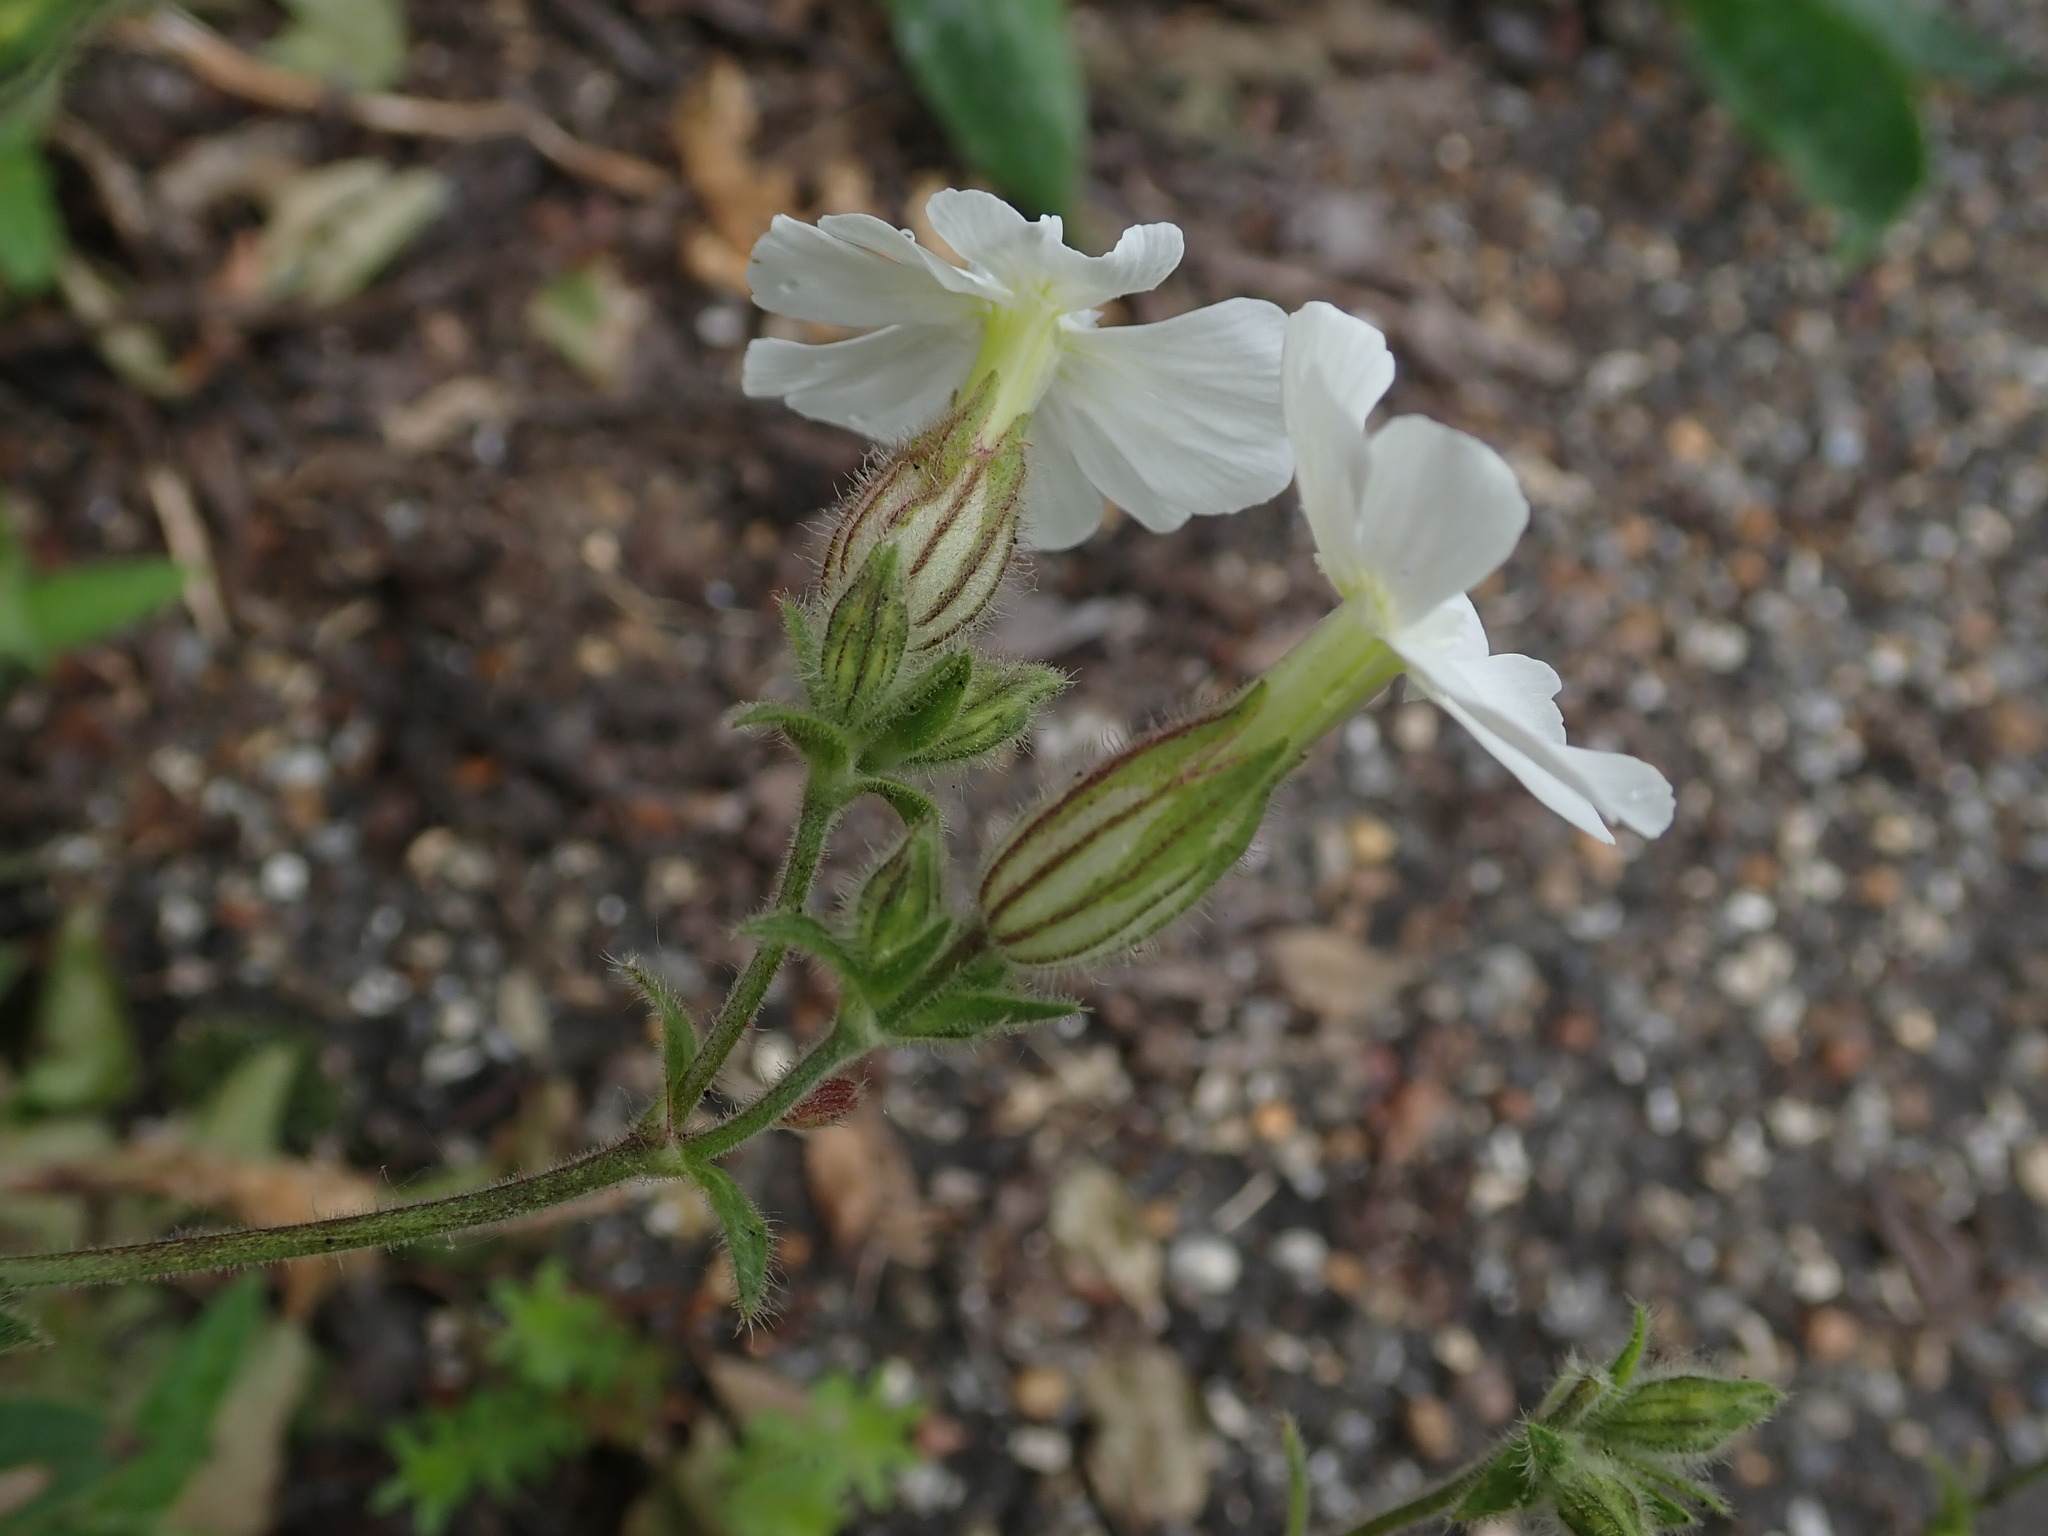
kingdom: Plantae
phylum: Tracheophyta
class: Magnoliopsida
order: Caryophyllales
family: Caryophyllaceae
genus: Silene
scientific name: Silene latifolia
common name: White campion
